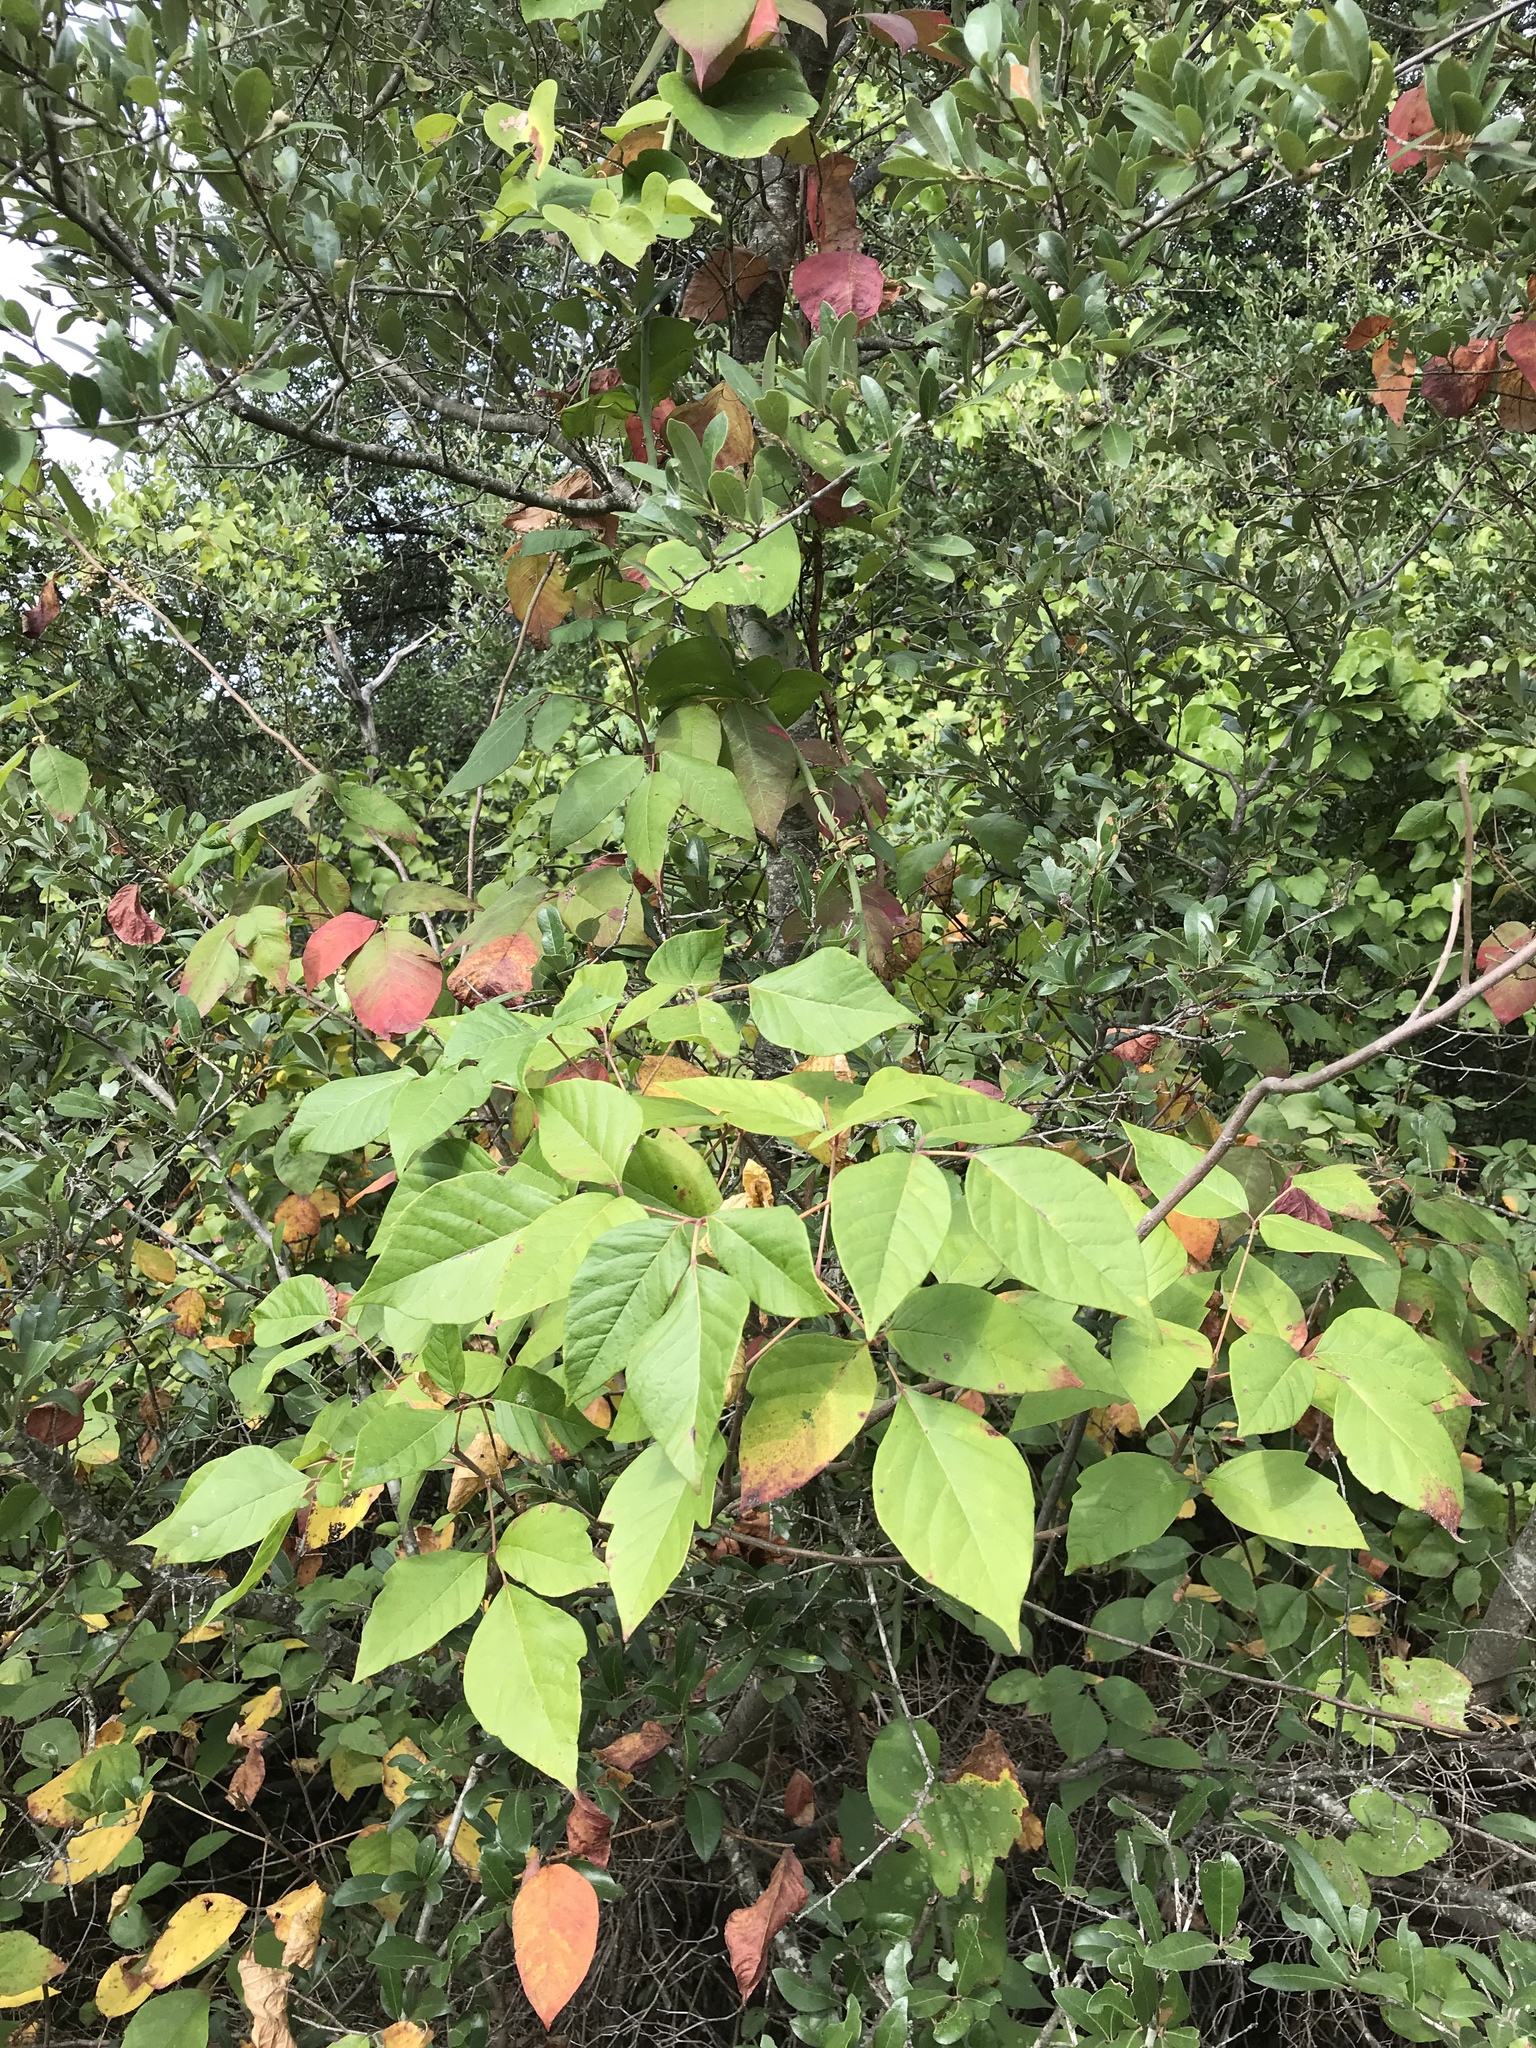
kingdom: Plantae
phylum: Tracheophyta
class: Magnoliopsida
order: Sapindales
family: Anacardiaceae
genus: Toxicodendron
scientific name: Toxicodendron radicans
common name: Poison ivy
